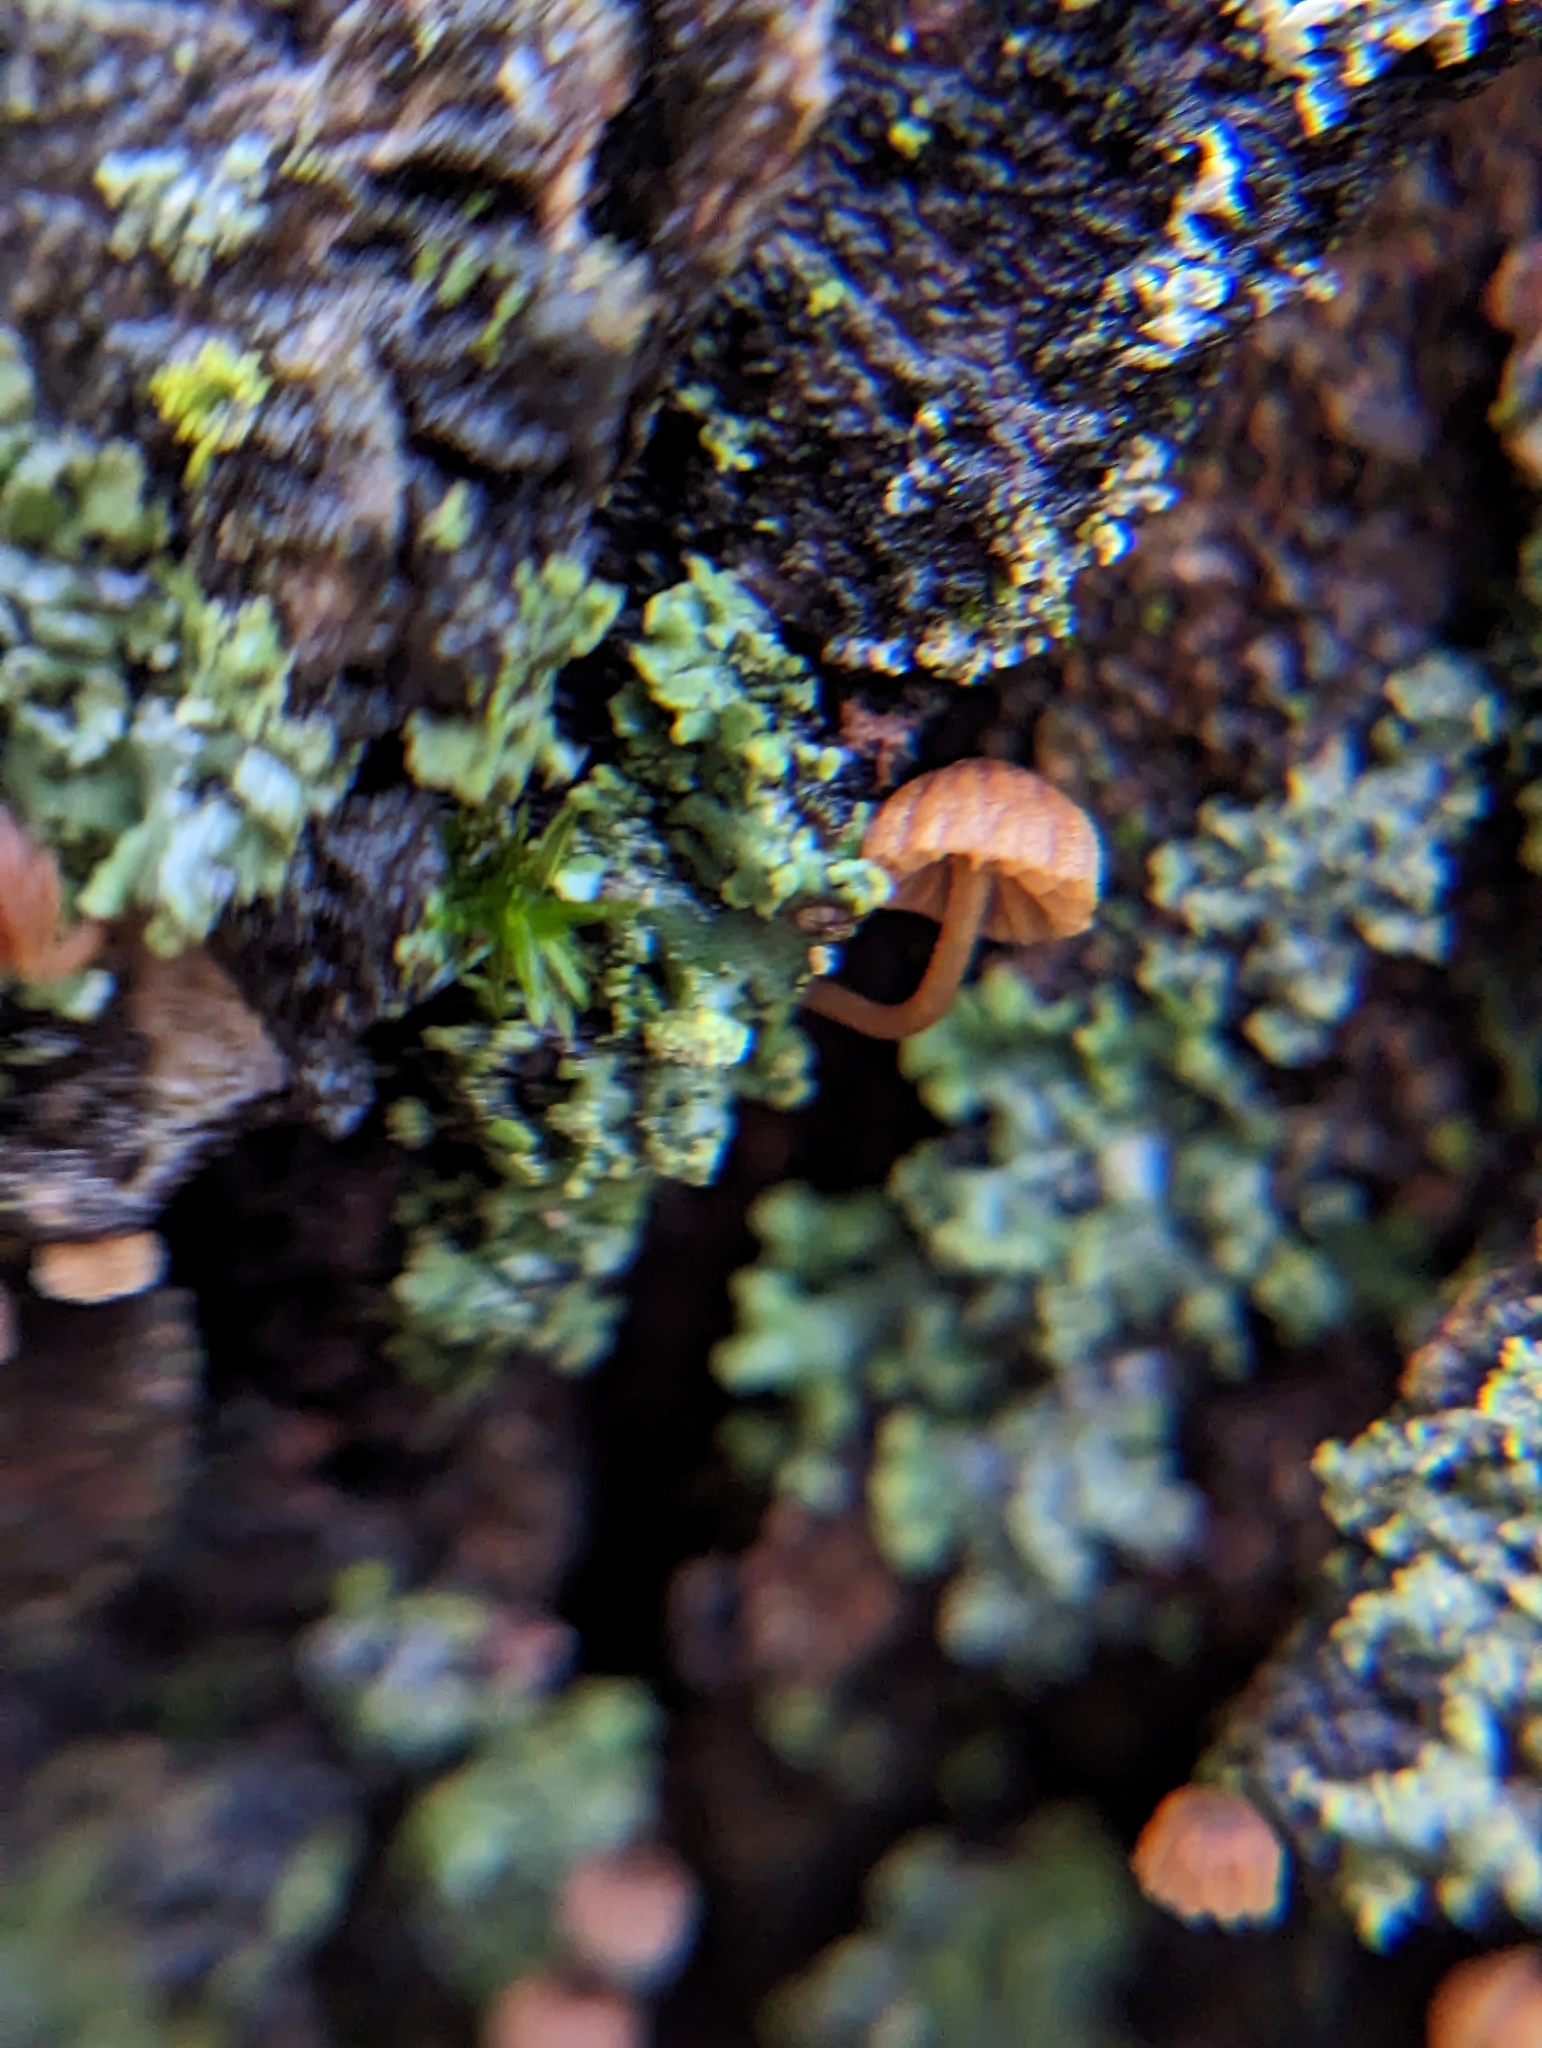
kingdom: Fungi
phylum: Basidiomycota
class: Agaricomycetes
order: Agaricales
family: Mycenaceae
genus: Mycena
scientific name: Mycena corticola
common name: Bark mycena
